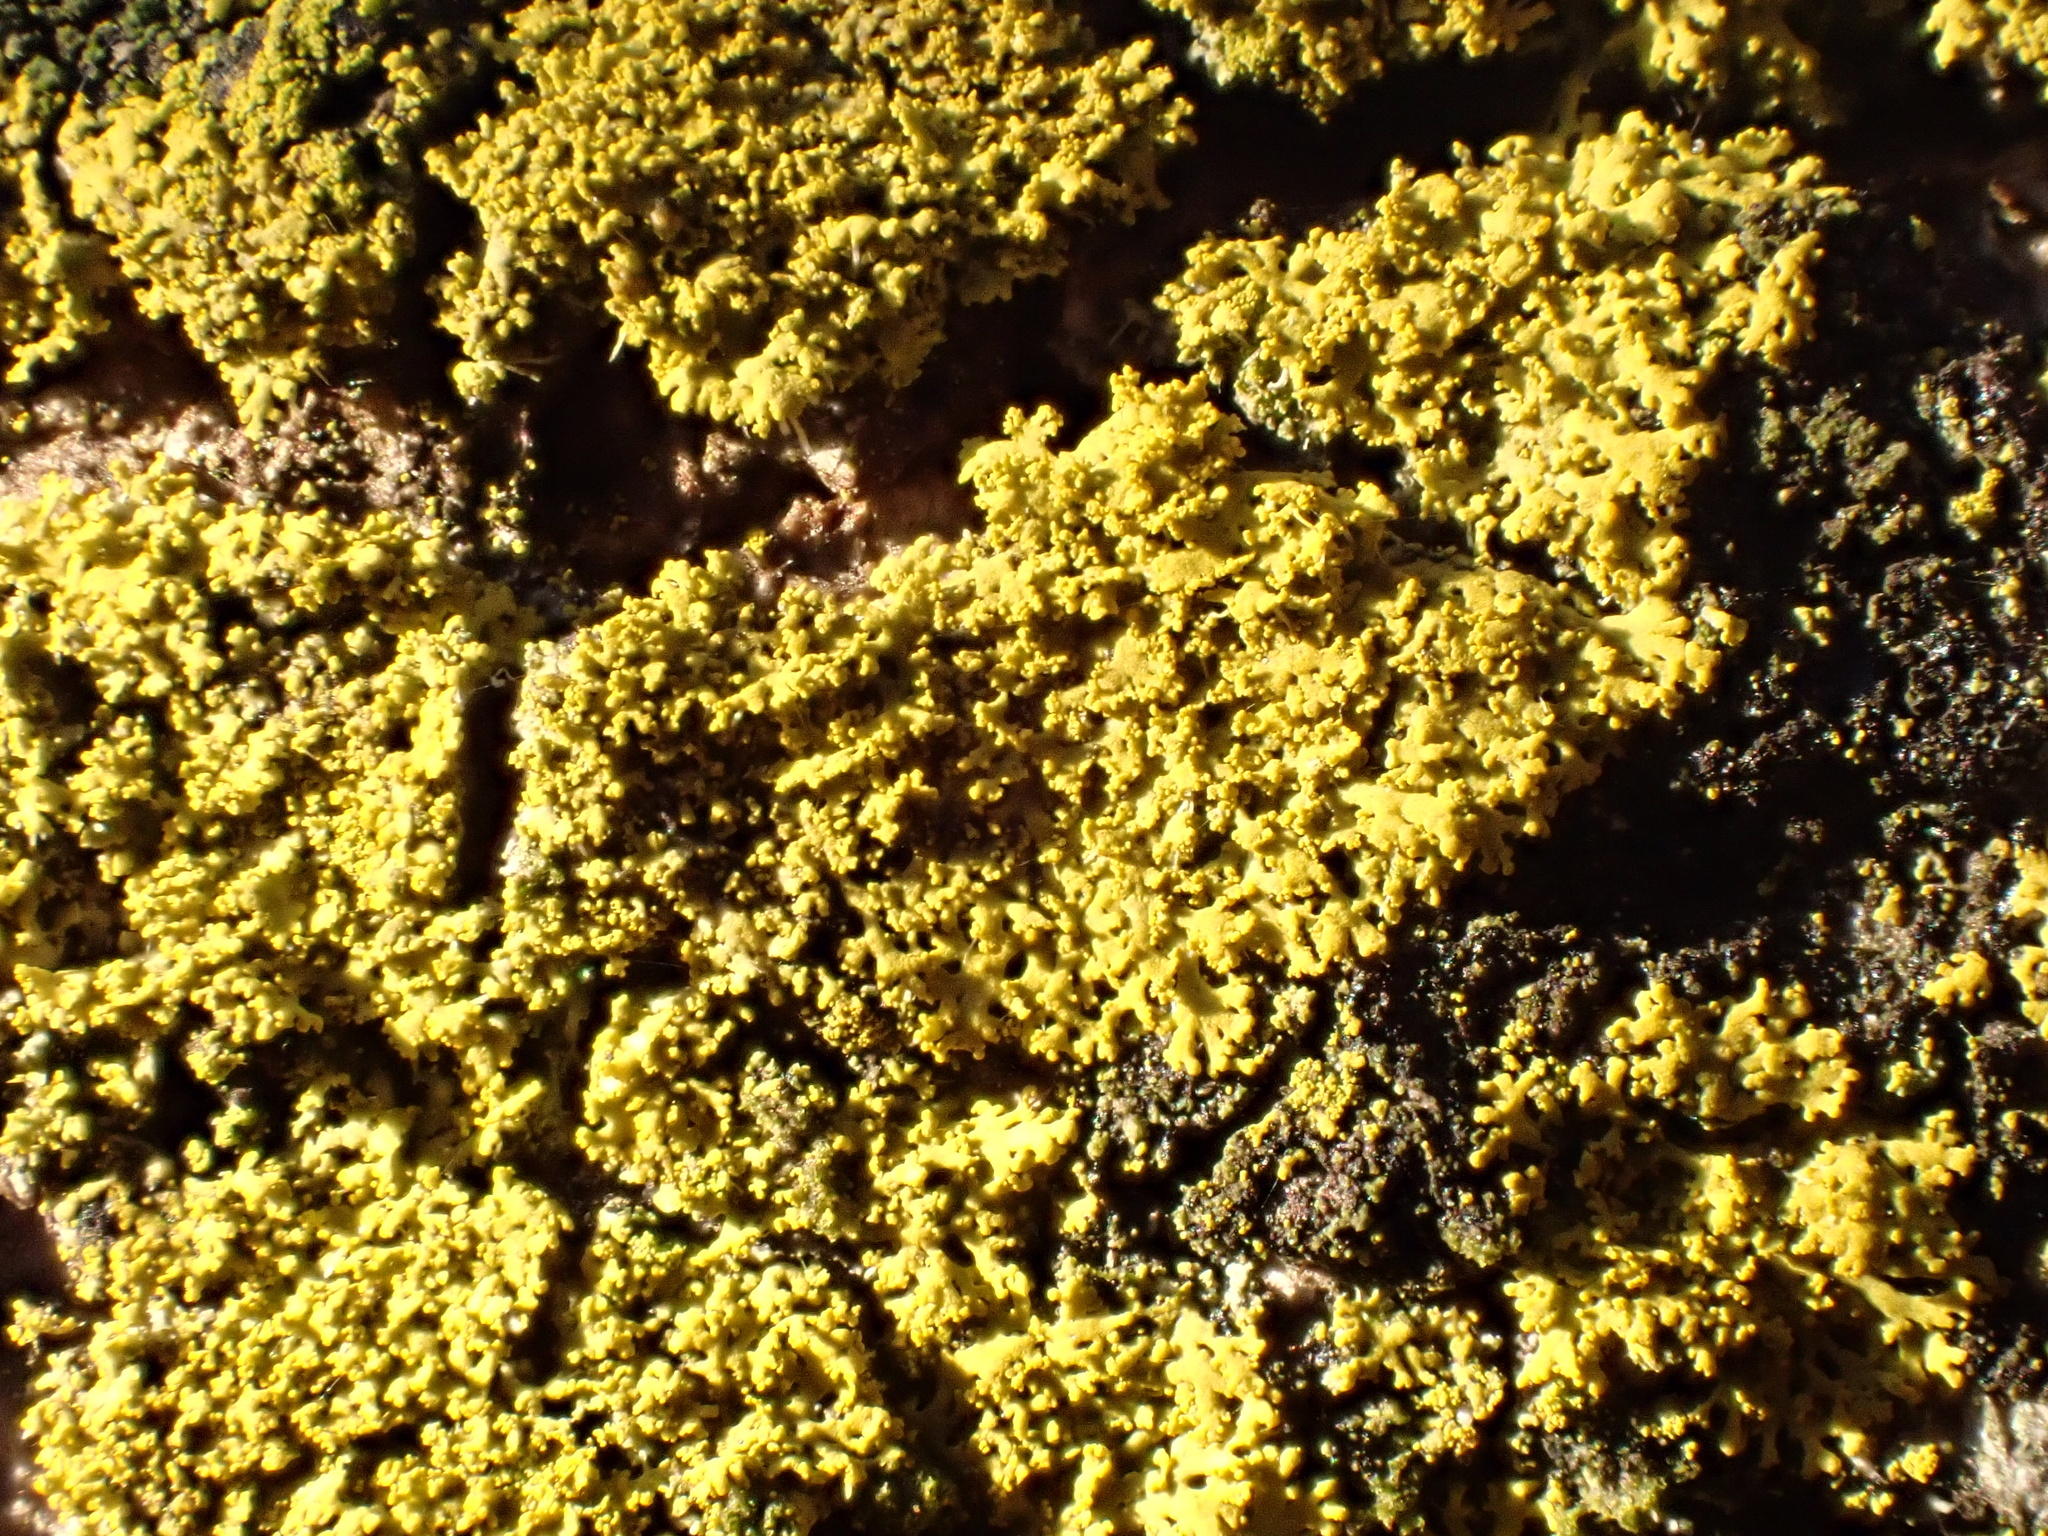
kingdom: Fungi
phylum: Ascomycota
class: Candelariomycetes
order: Candelariales
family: Candelariaceae
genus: Candelaria
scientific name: Candelaria concolor
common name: Candleflame lichen
